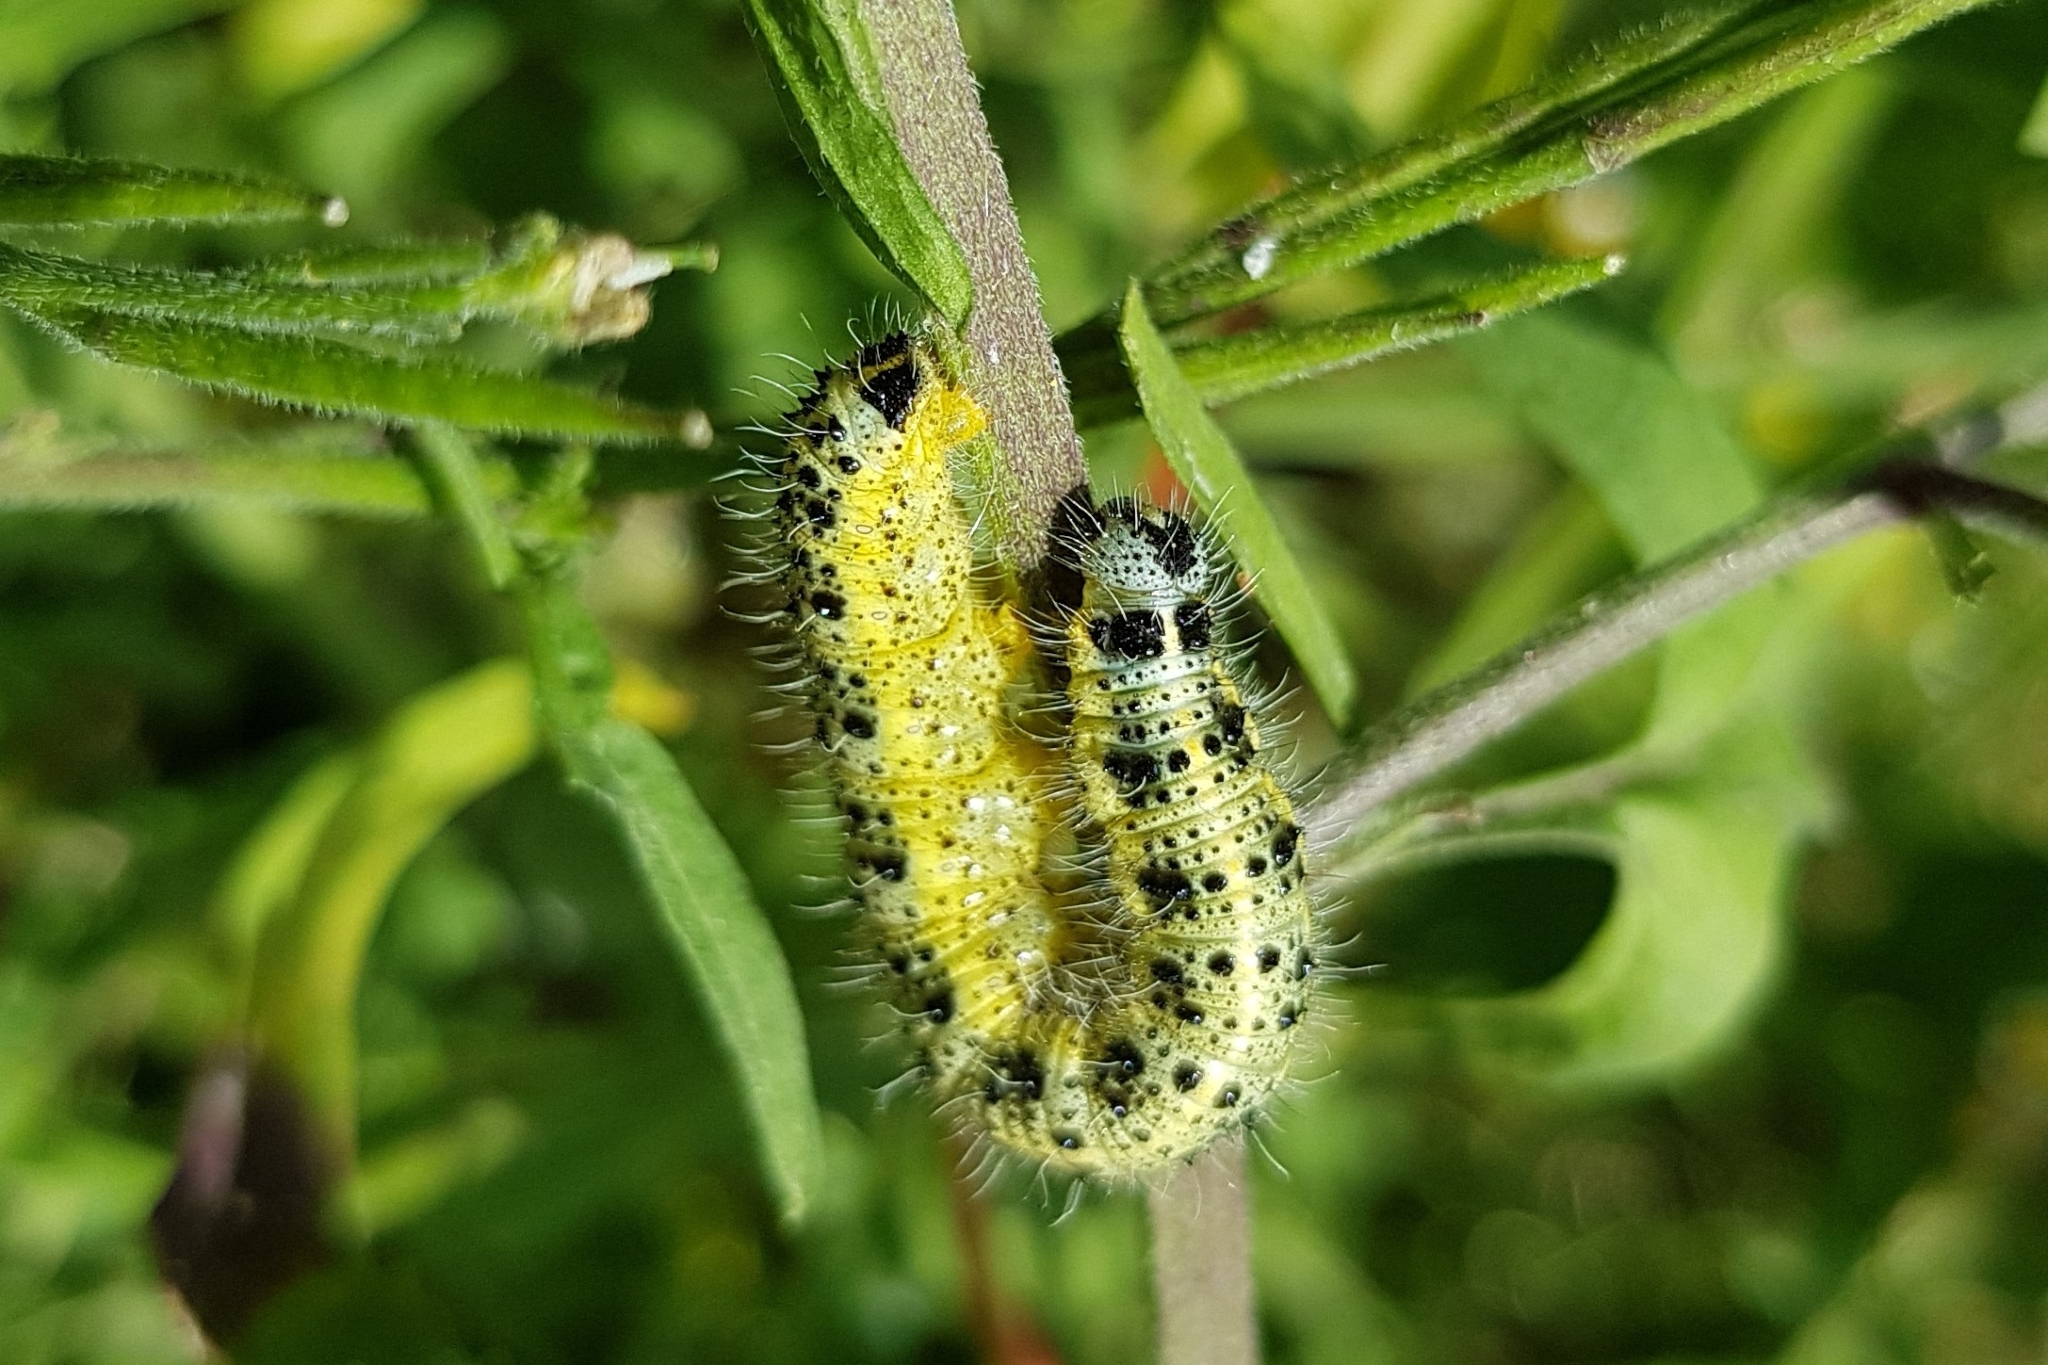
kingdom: Animalia
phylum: Arthropoda
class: Insecta
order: Lepidoptera
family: Pieridae
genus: Pieris
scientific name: Pieris brassicae
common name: Large white
